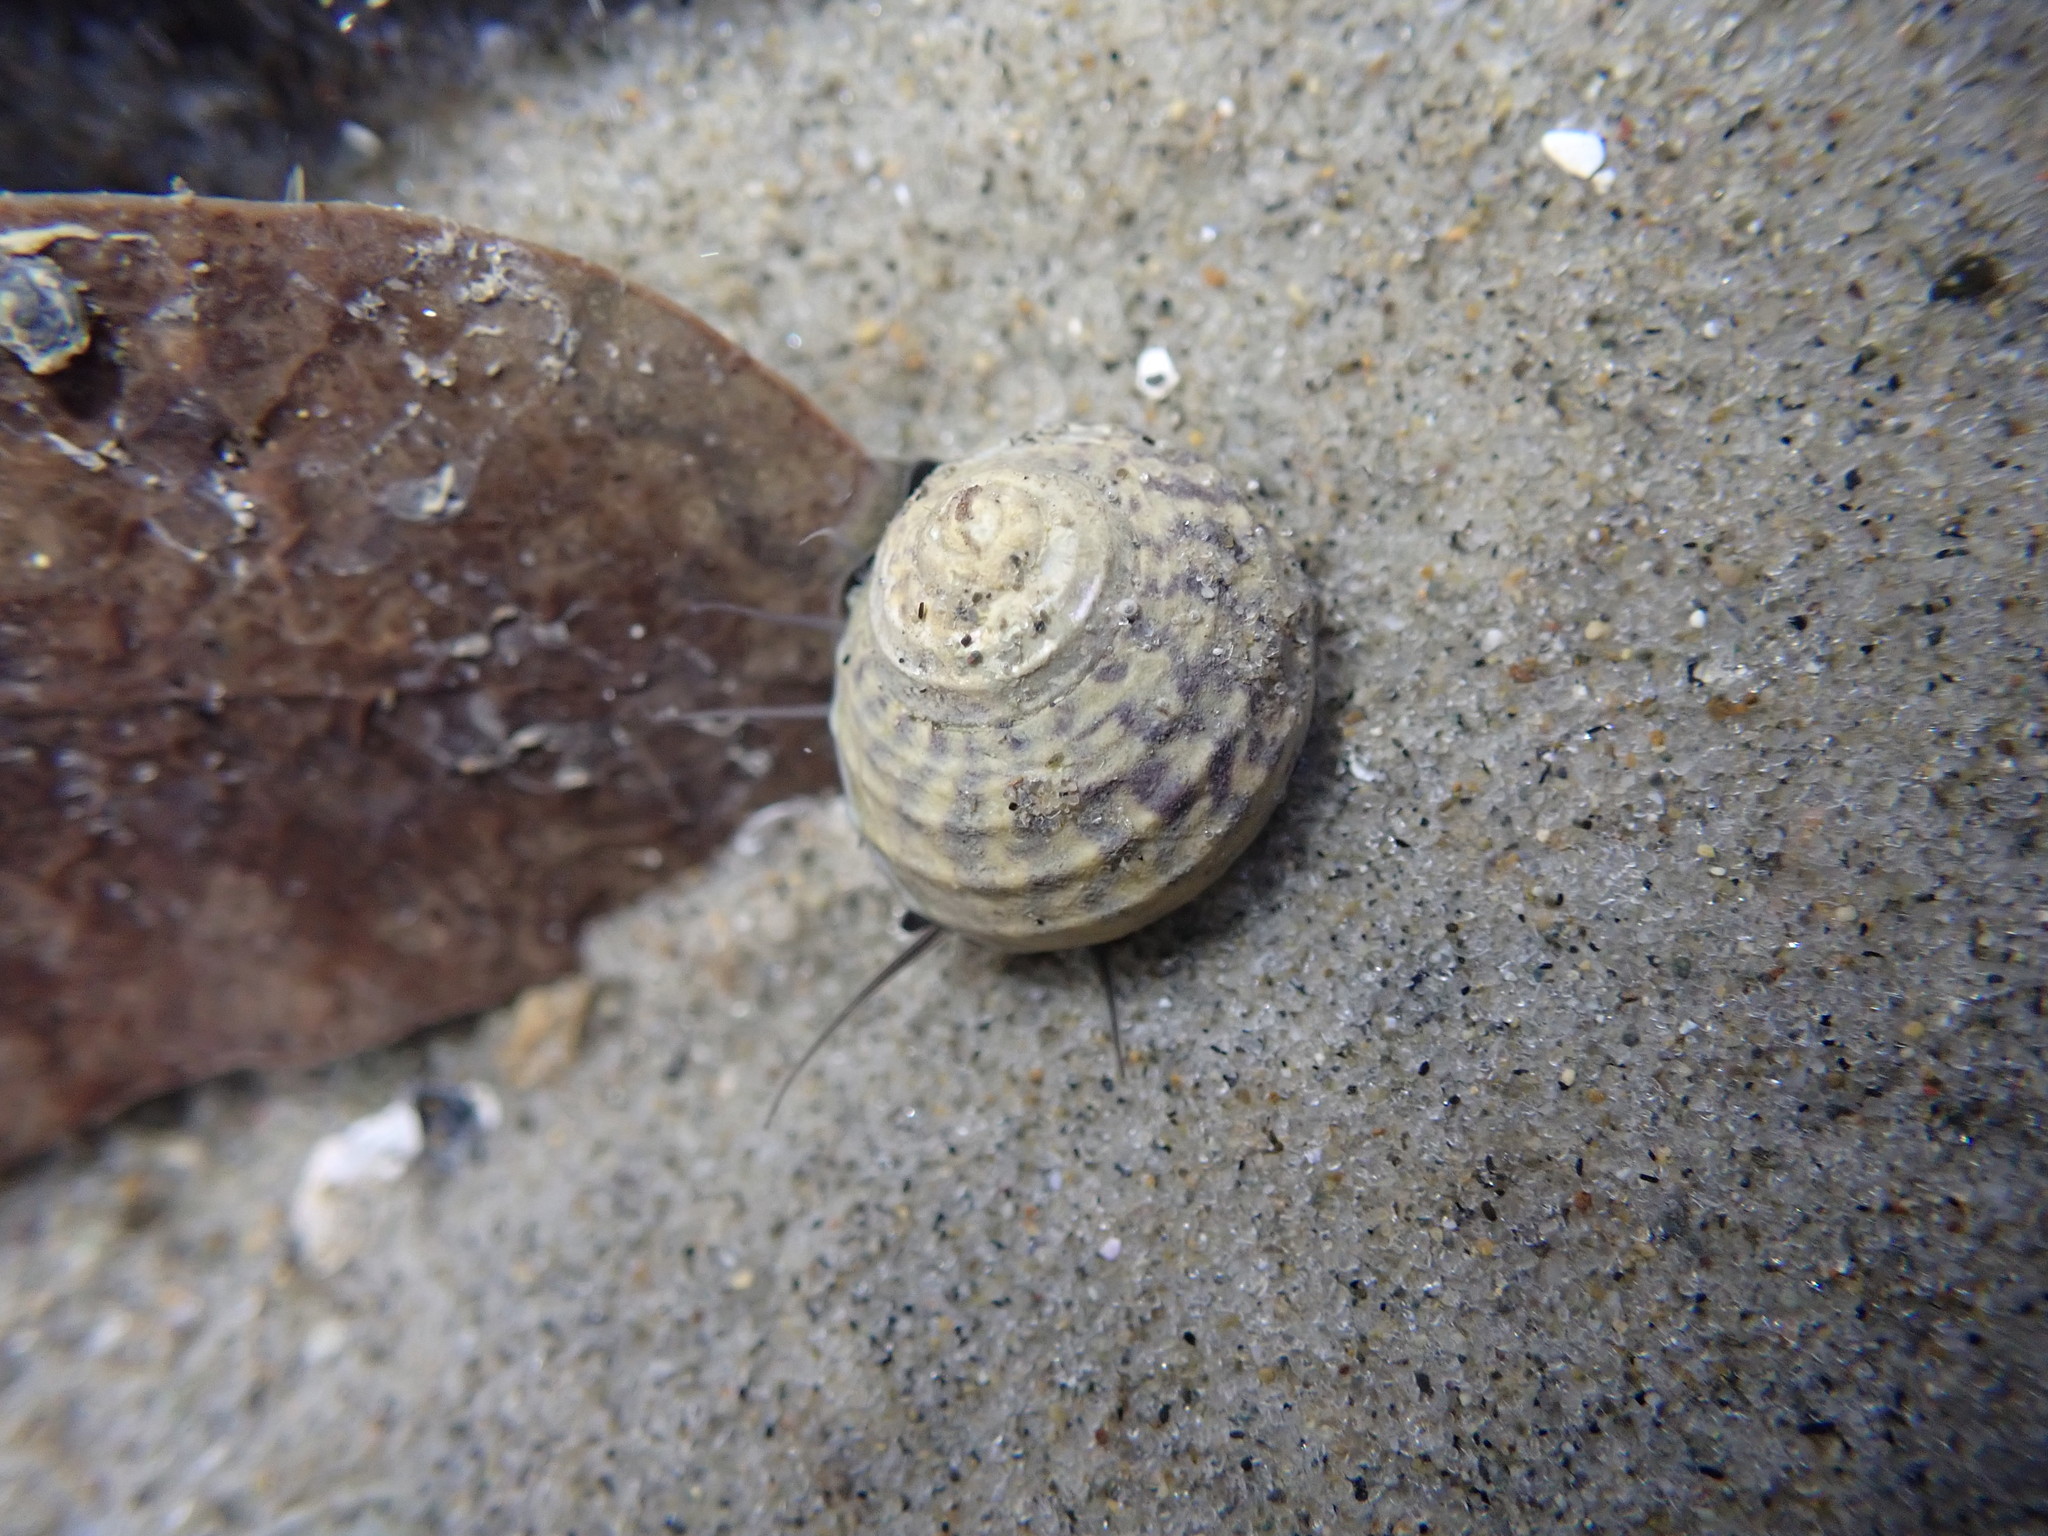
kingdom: Animalia
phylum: Mollusca
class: Gastropoda
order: Trochida
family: Trochidae
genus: Diloma
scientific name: Diloma subrostratum
